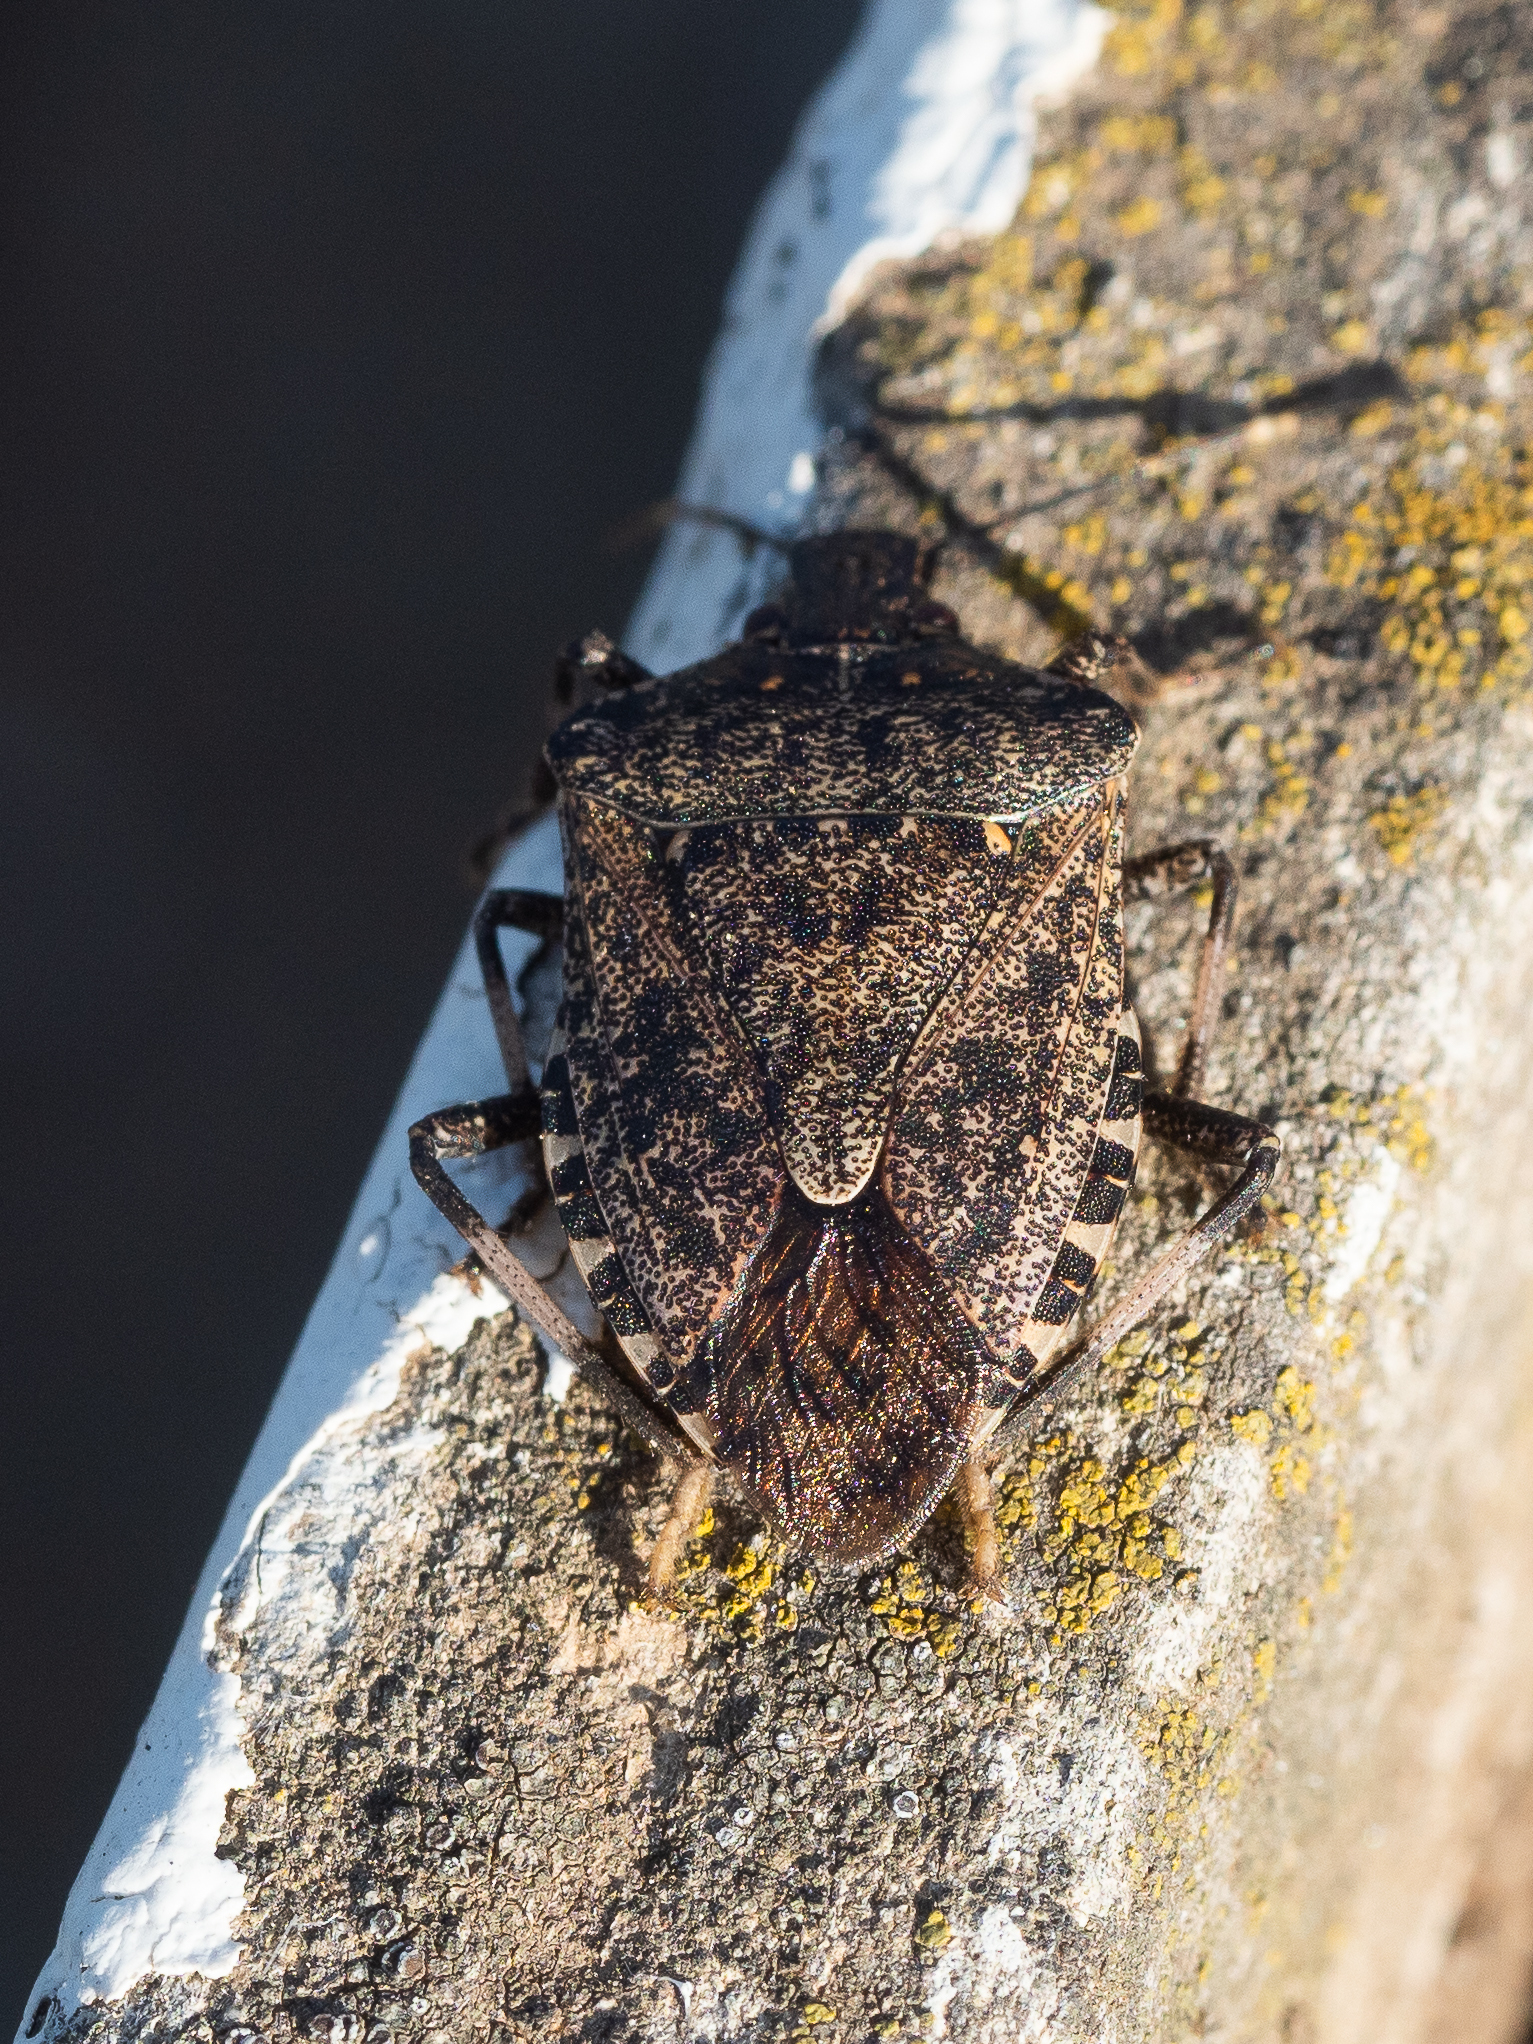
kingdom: Animalia
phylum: Arthropoda
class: Insecta
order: Hemiptera
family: Pentatomidae
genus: Halyomorpha
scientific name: Halyomorpha halys
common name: Brown marmorated stink bug
